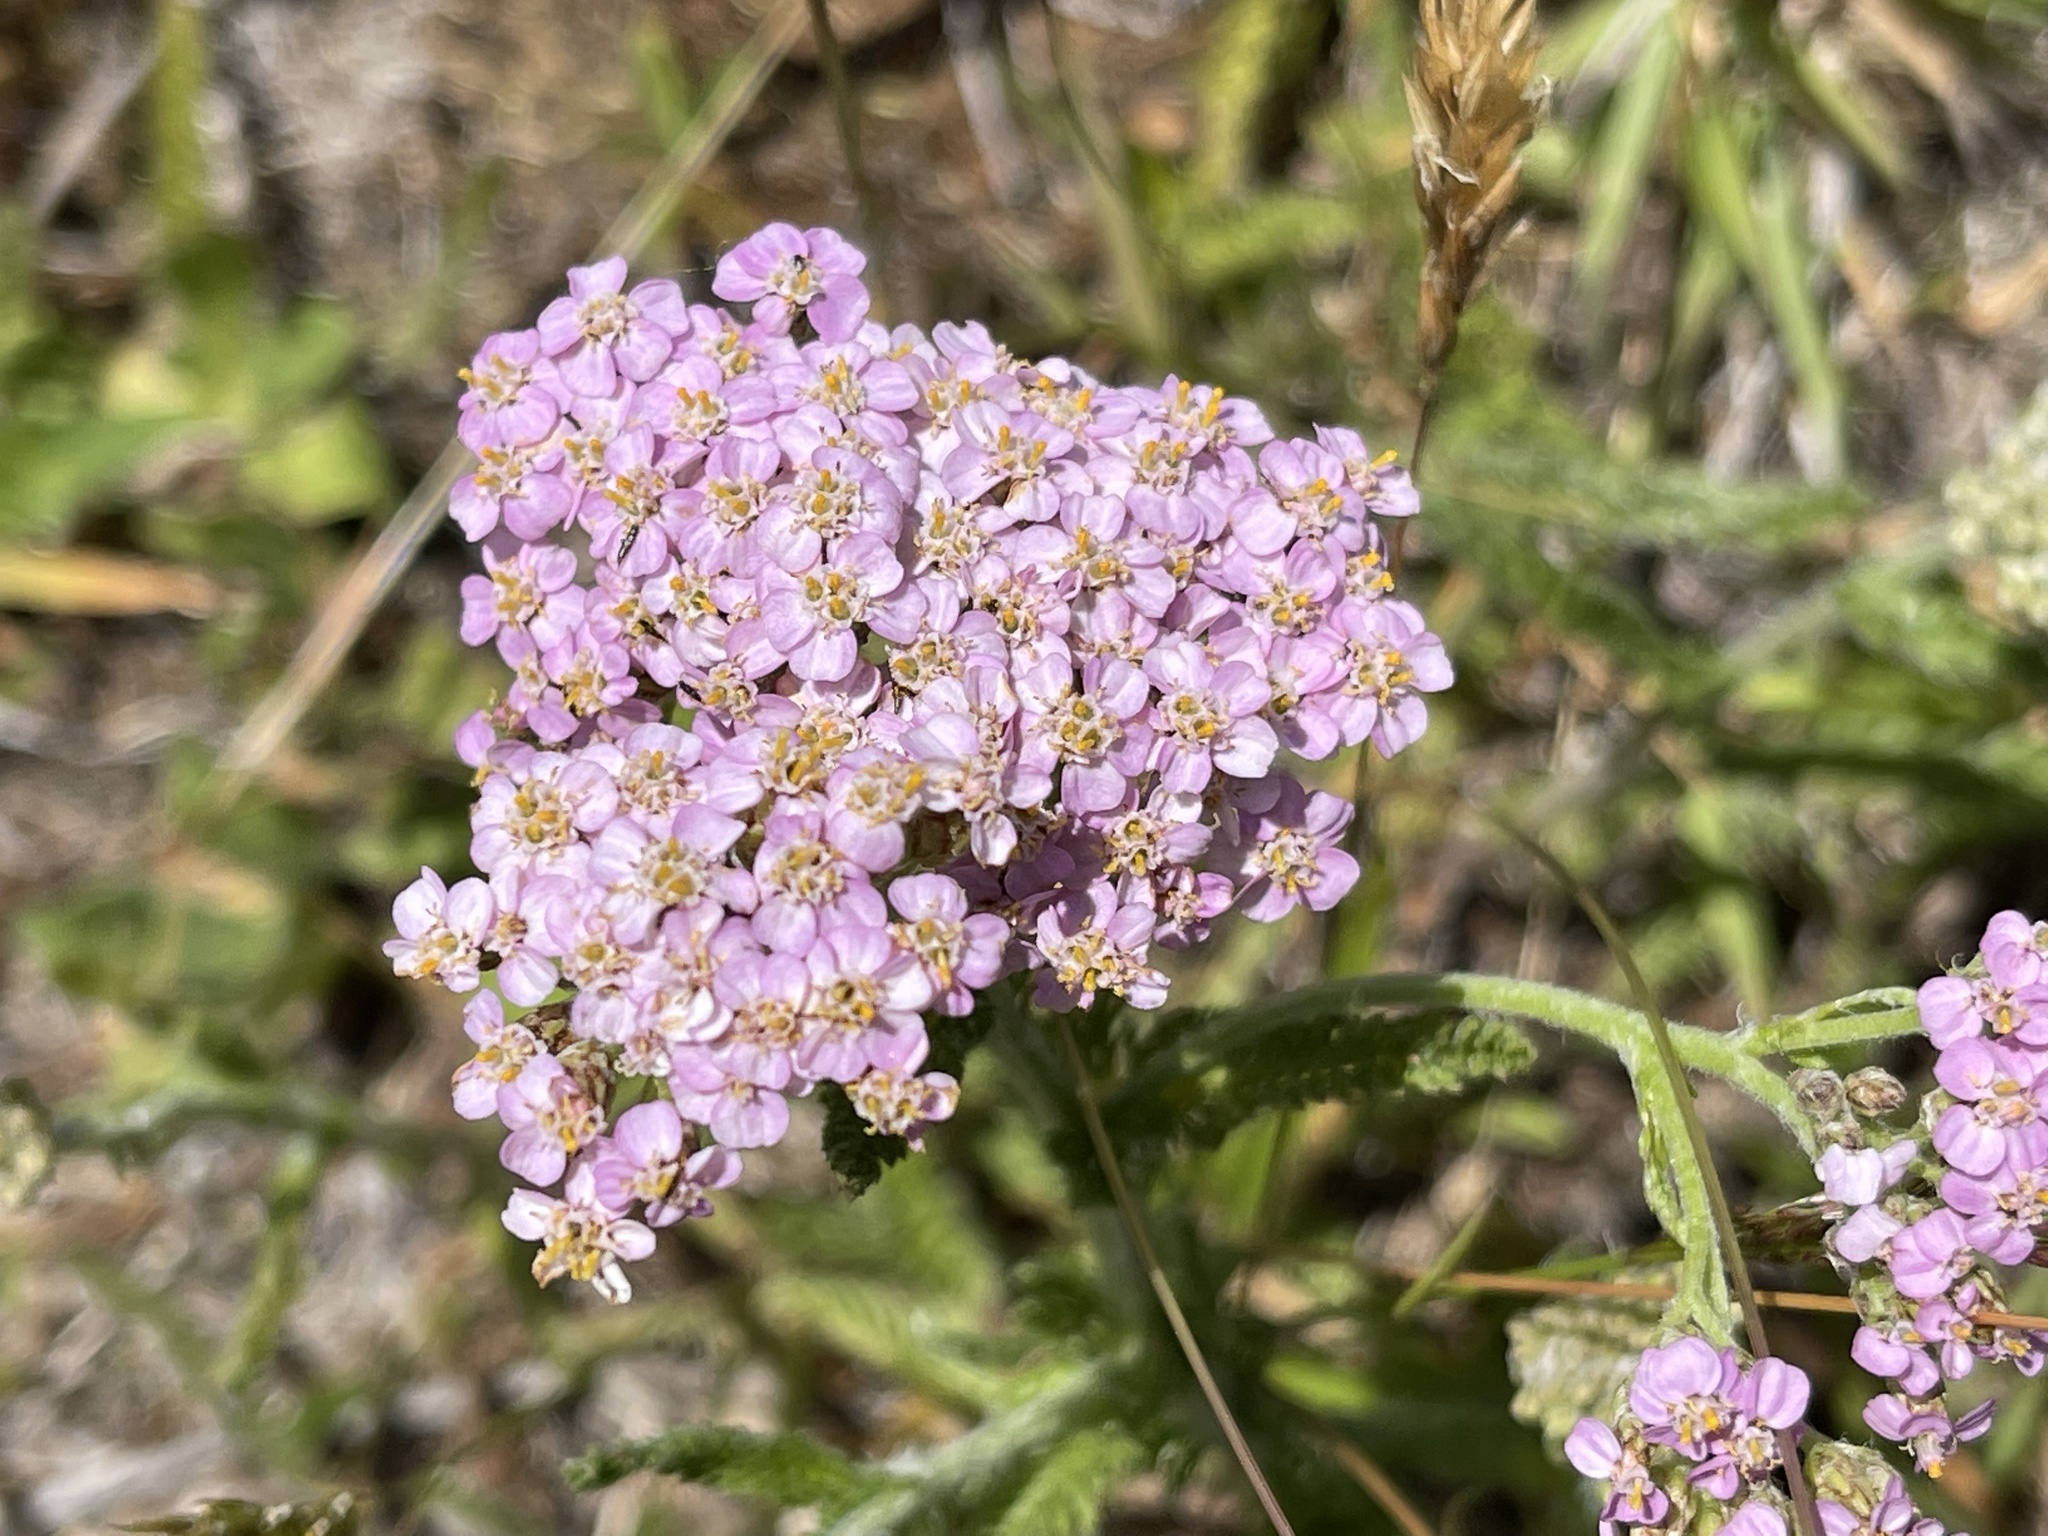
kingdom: Plantae
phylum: Tracheophyta
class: Magnoliopsida
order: Asterales
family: Asteraceae
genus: Achillea
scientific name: Achillea millefolium
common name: Yarrow
